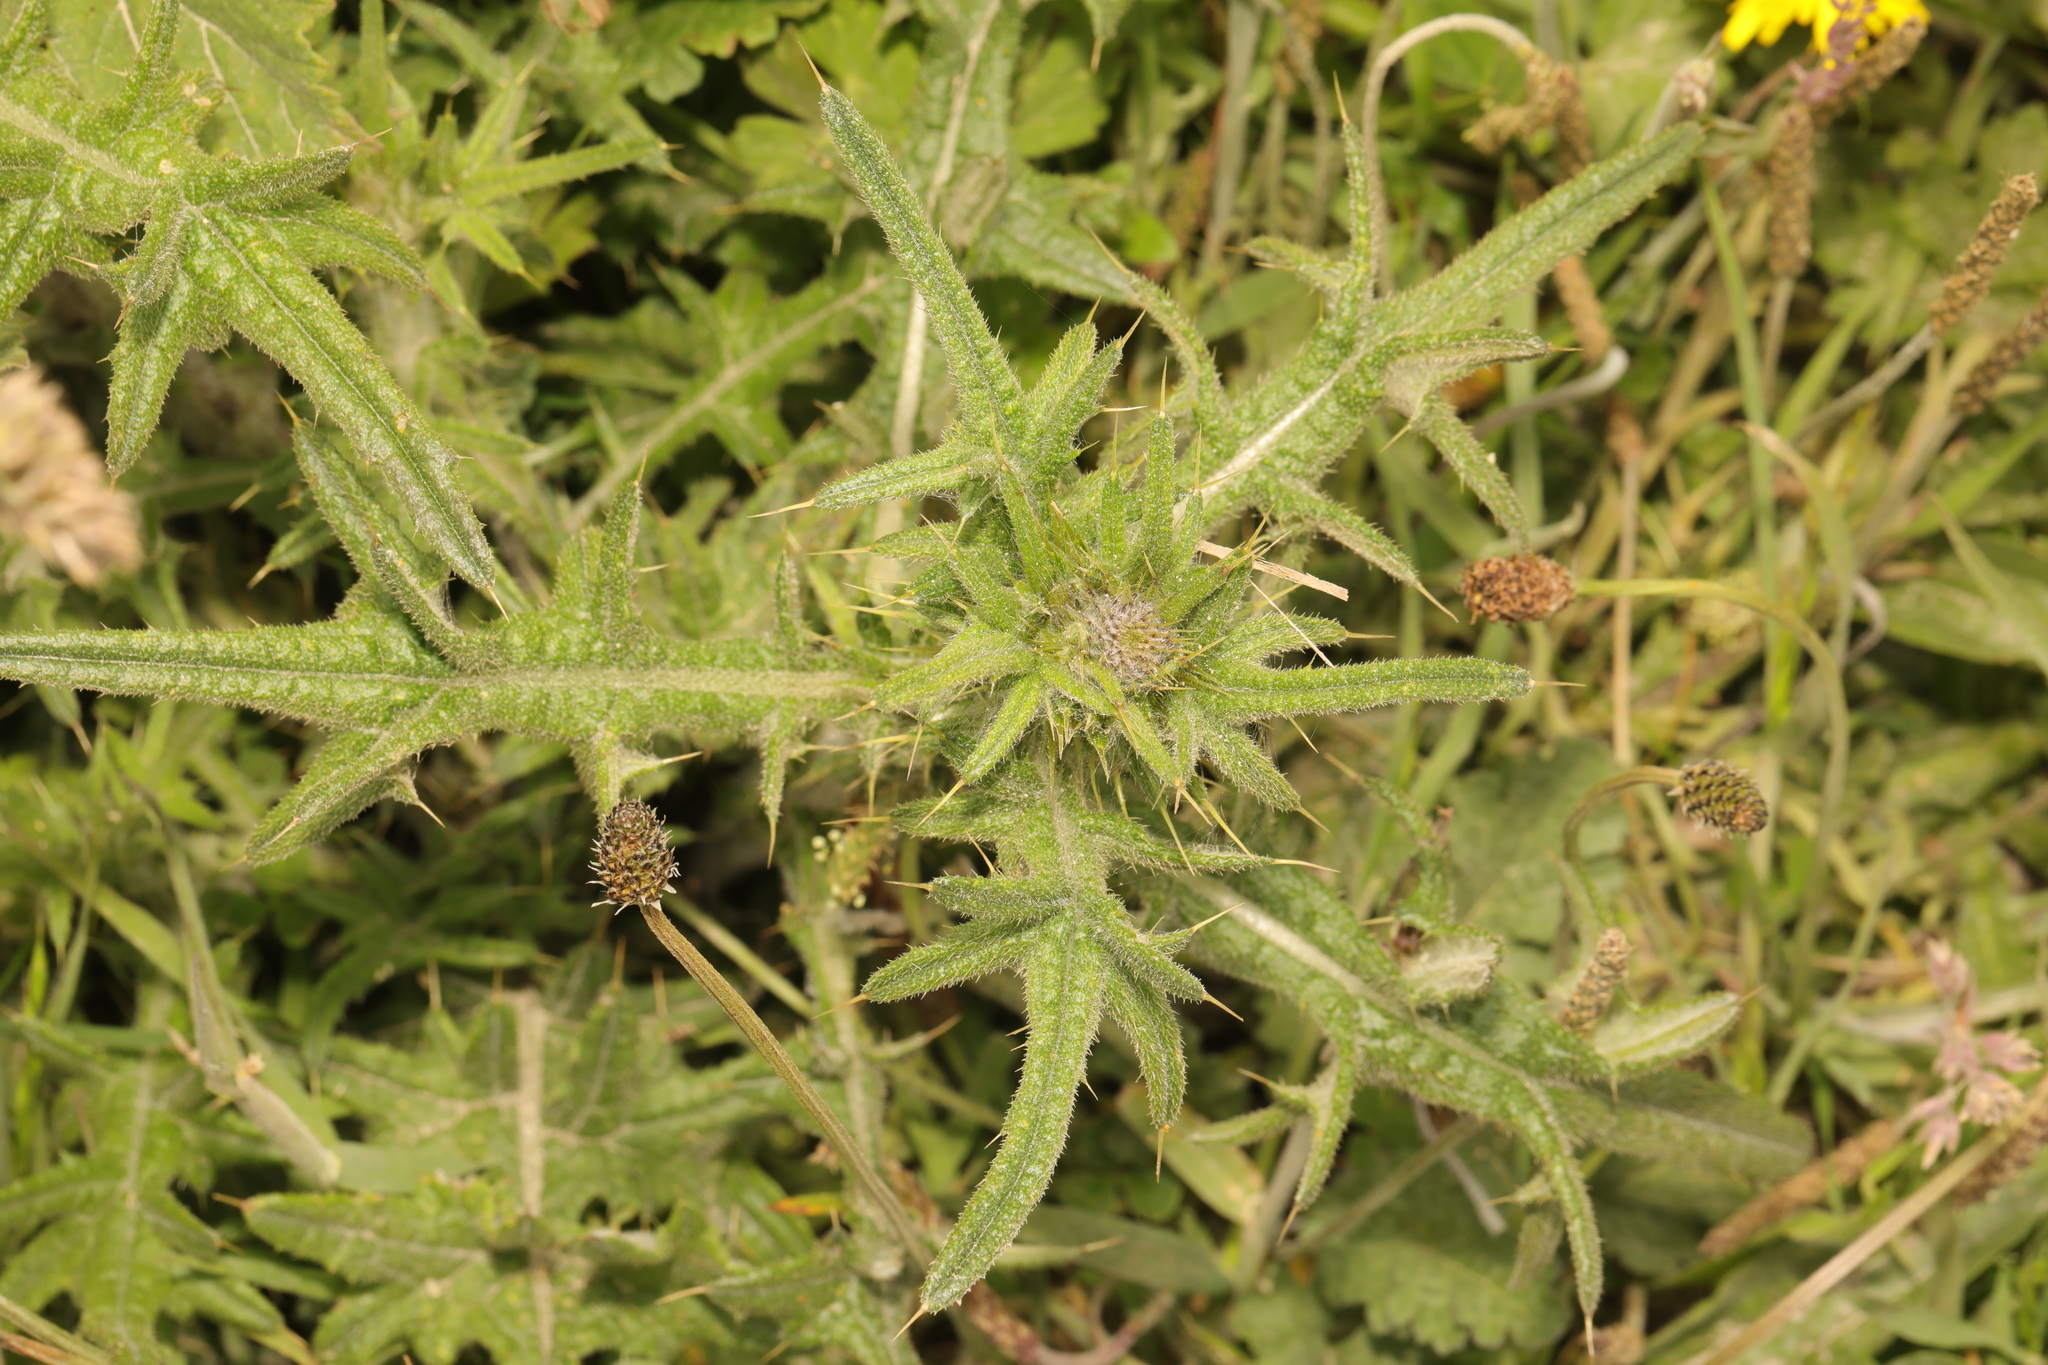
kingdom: Plantae
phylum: Tracheophyta
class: Magnoliopsida
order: Asterales
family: Asteraceae
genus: Cirsium
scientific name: Cirsium vulgare
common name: Bull thistle
